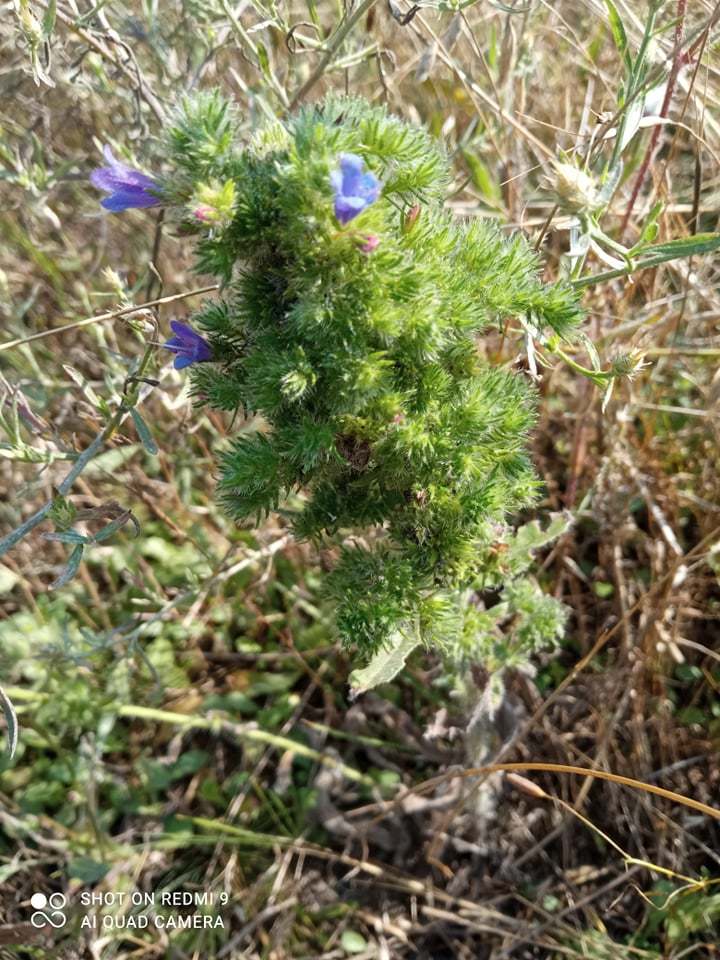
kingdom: Plantae
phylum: Tracheophyta
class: Magnoliopsida
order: Boraginales
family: Boraginaceae
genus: Echium
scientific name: Echium vulgare
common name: Common viper's bugloss
